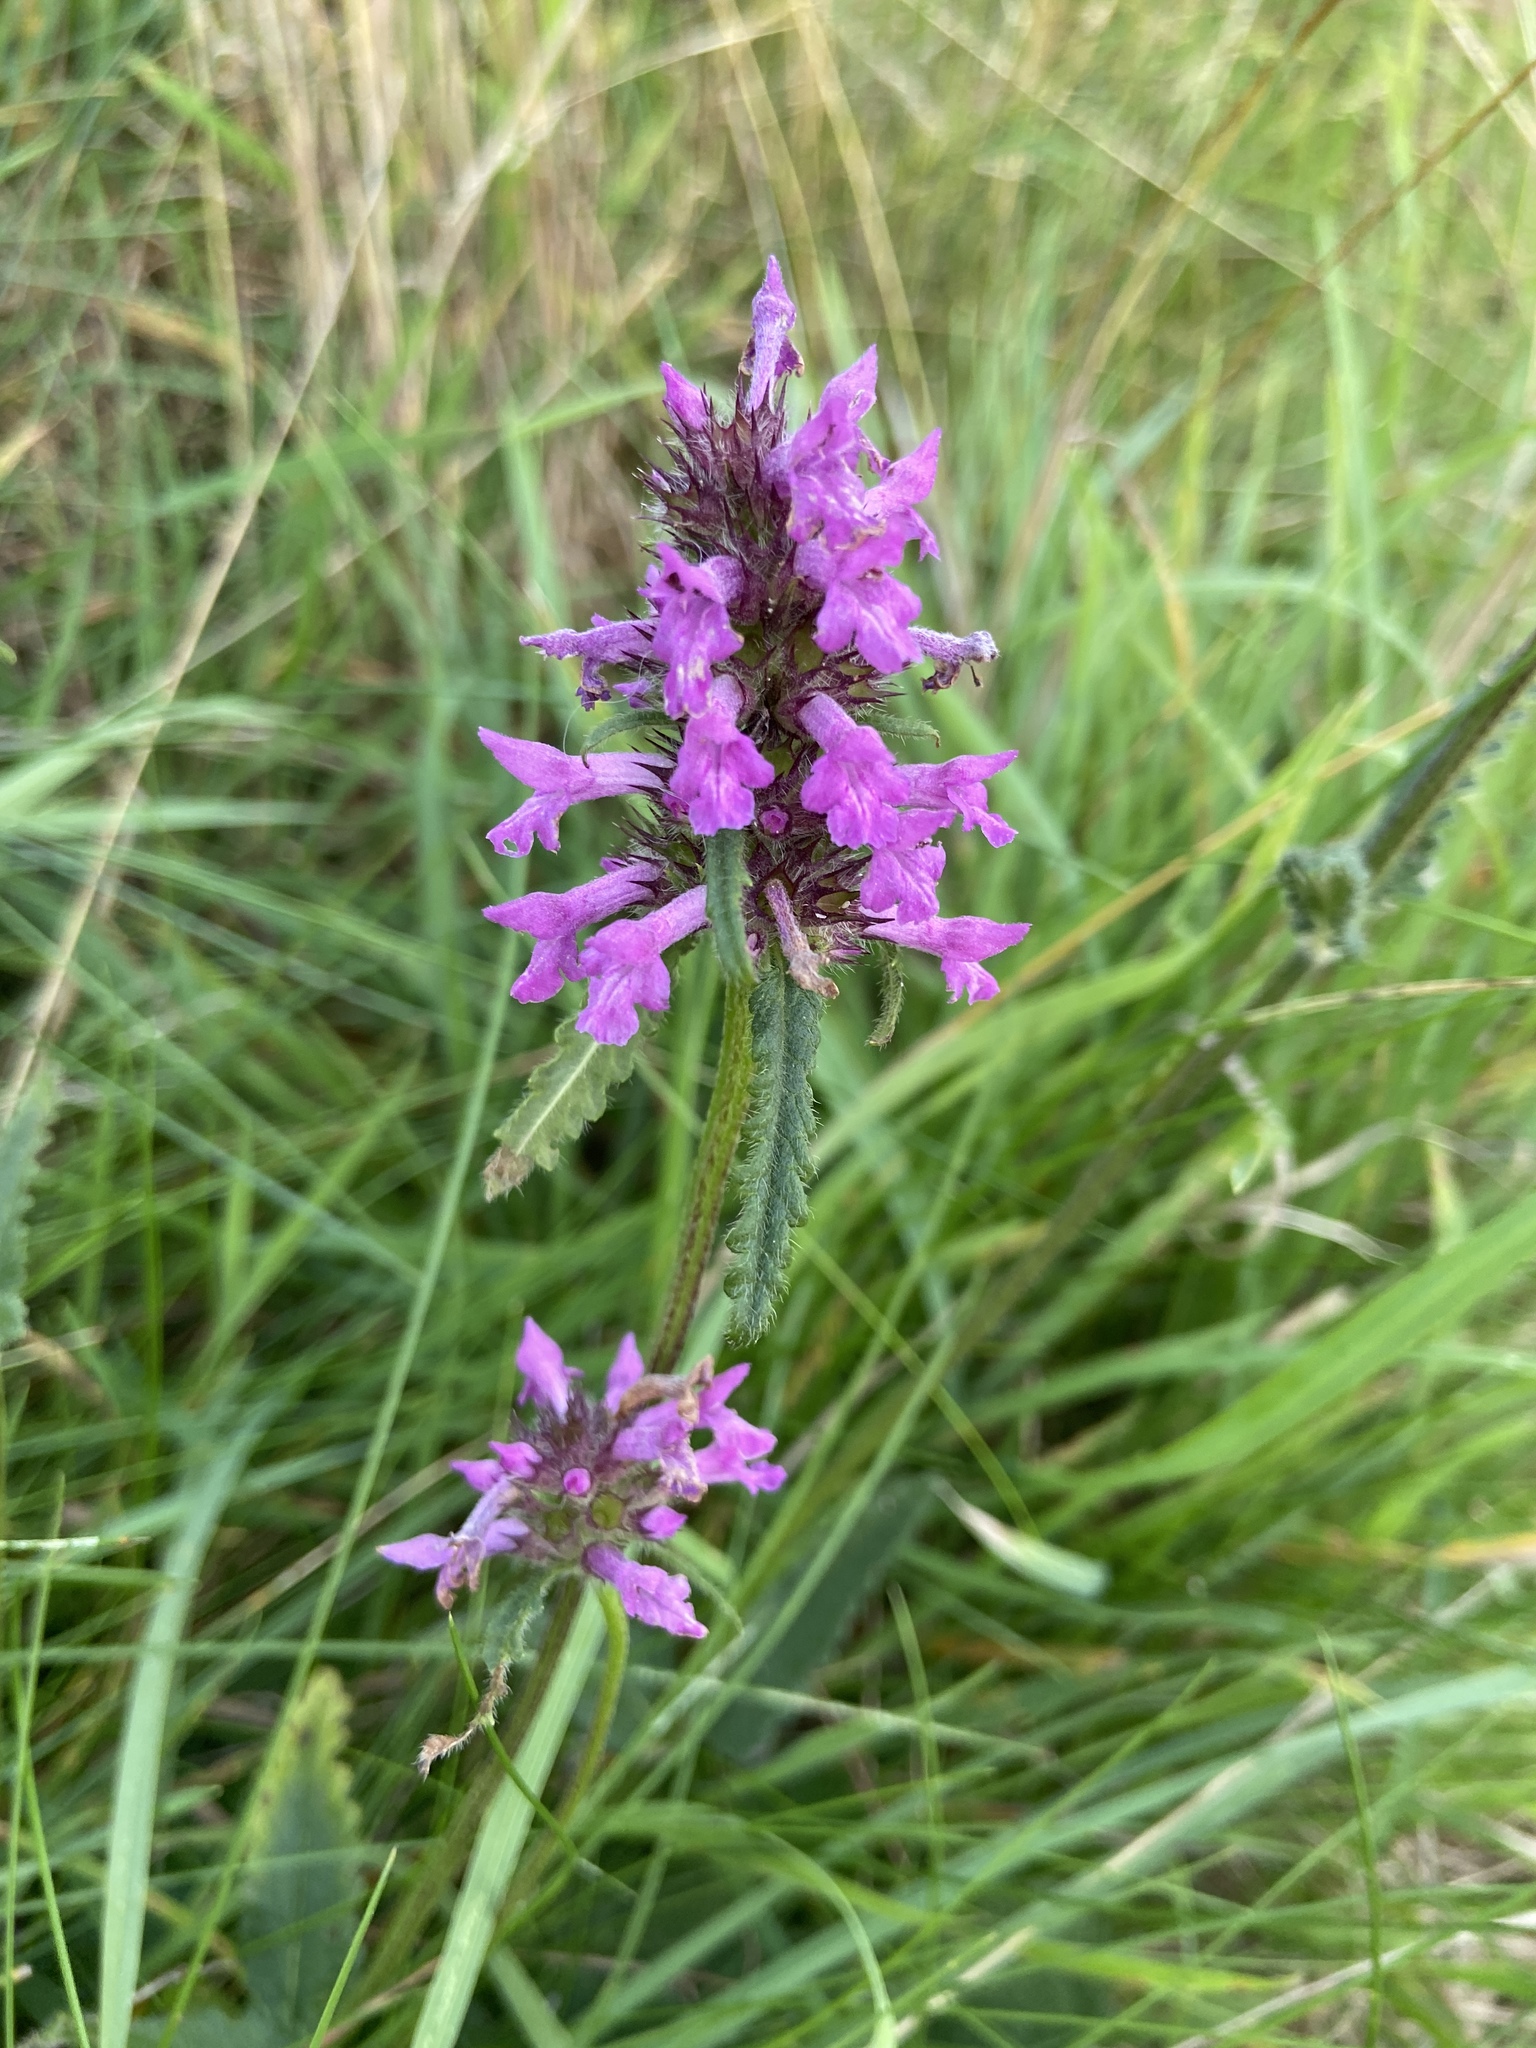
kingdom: Plantae
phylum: Tracheophyta
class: Magnoliopsida
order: Lamiales
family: Lamiaceae
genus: Betonica
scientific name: Betonica officinalis
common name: Bishop's-wort
